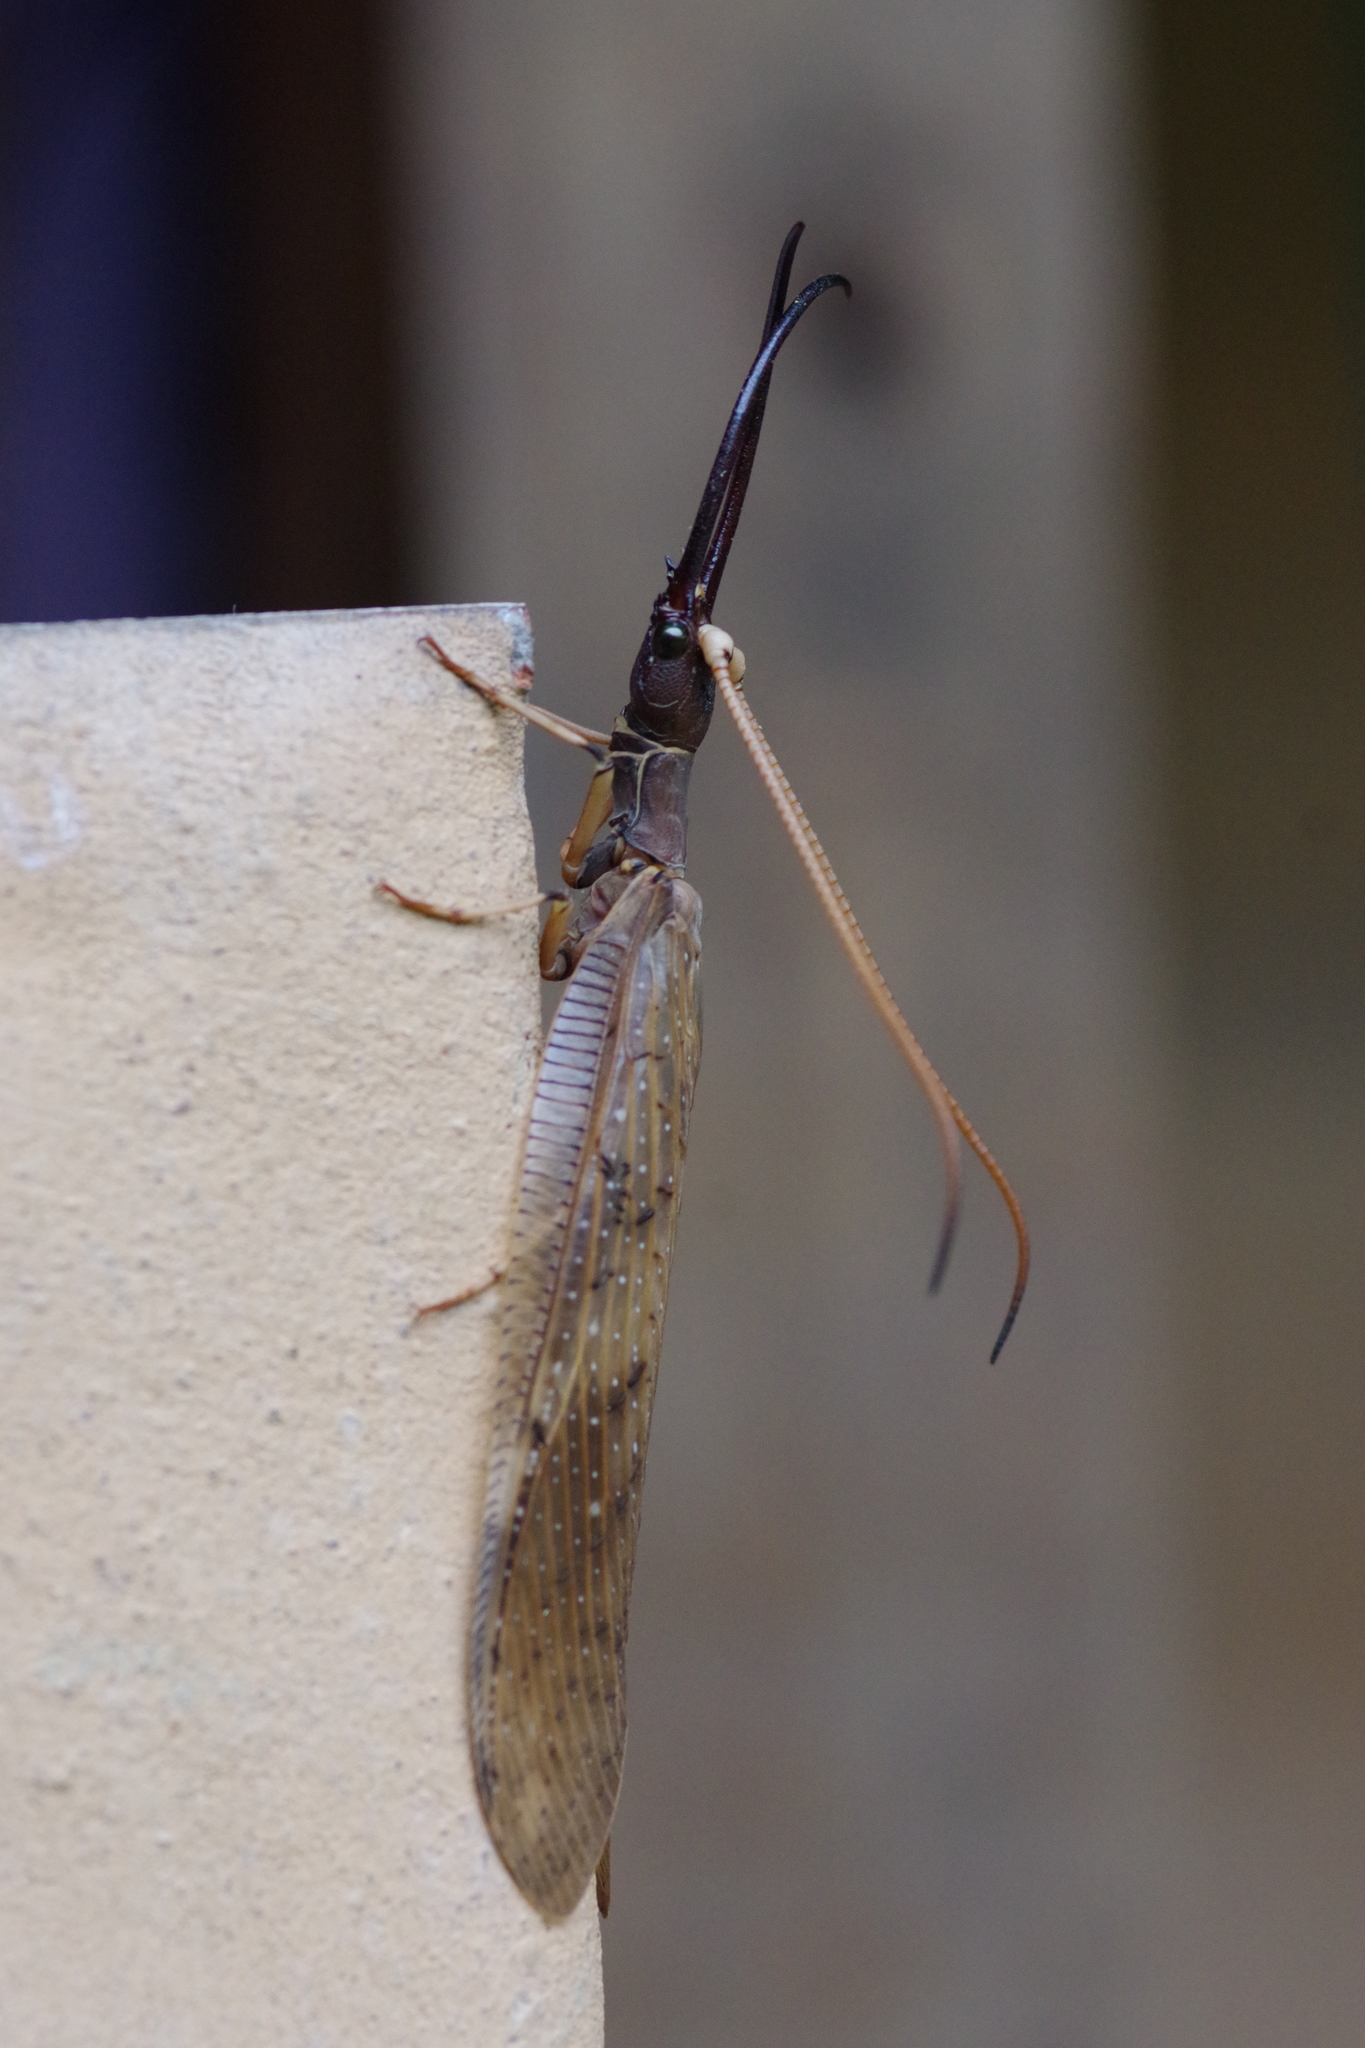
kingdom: Animalia
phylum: Arthropoda
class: Insecta
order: Megaloptera
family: Corydalidae
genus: Corydalus
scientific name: Corydalus peruvianus
